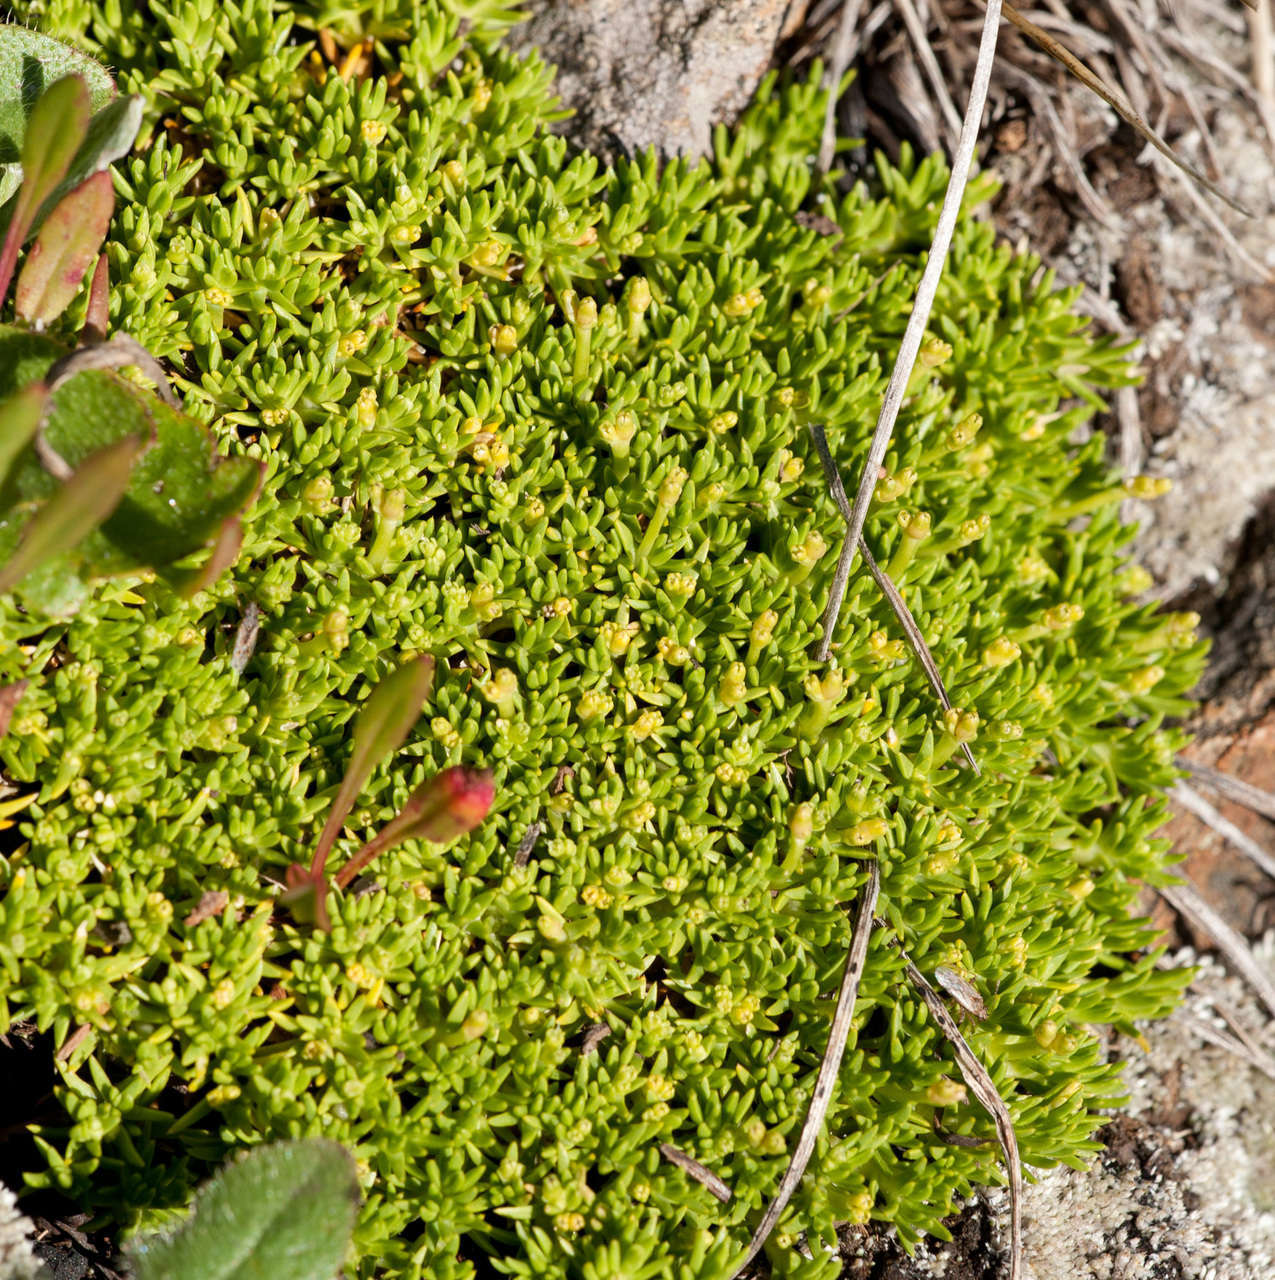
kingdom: Plantae
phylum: Tracheophyta
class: Magnoliopsida
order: Caryophyllales
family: Caryophyllaceae
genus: Scleranthus
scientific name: Scleranthus biflorus
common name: Two-flower knawel
